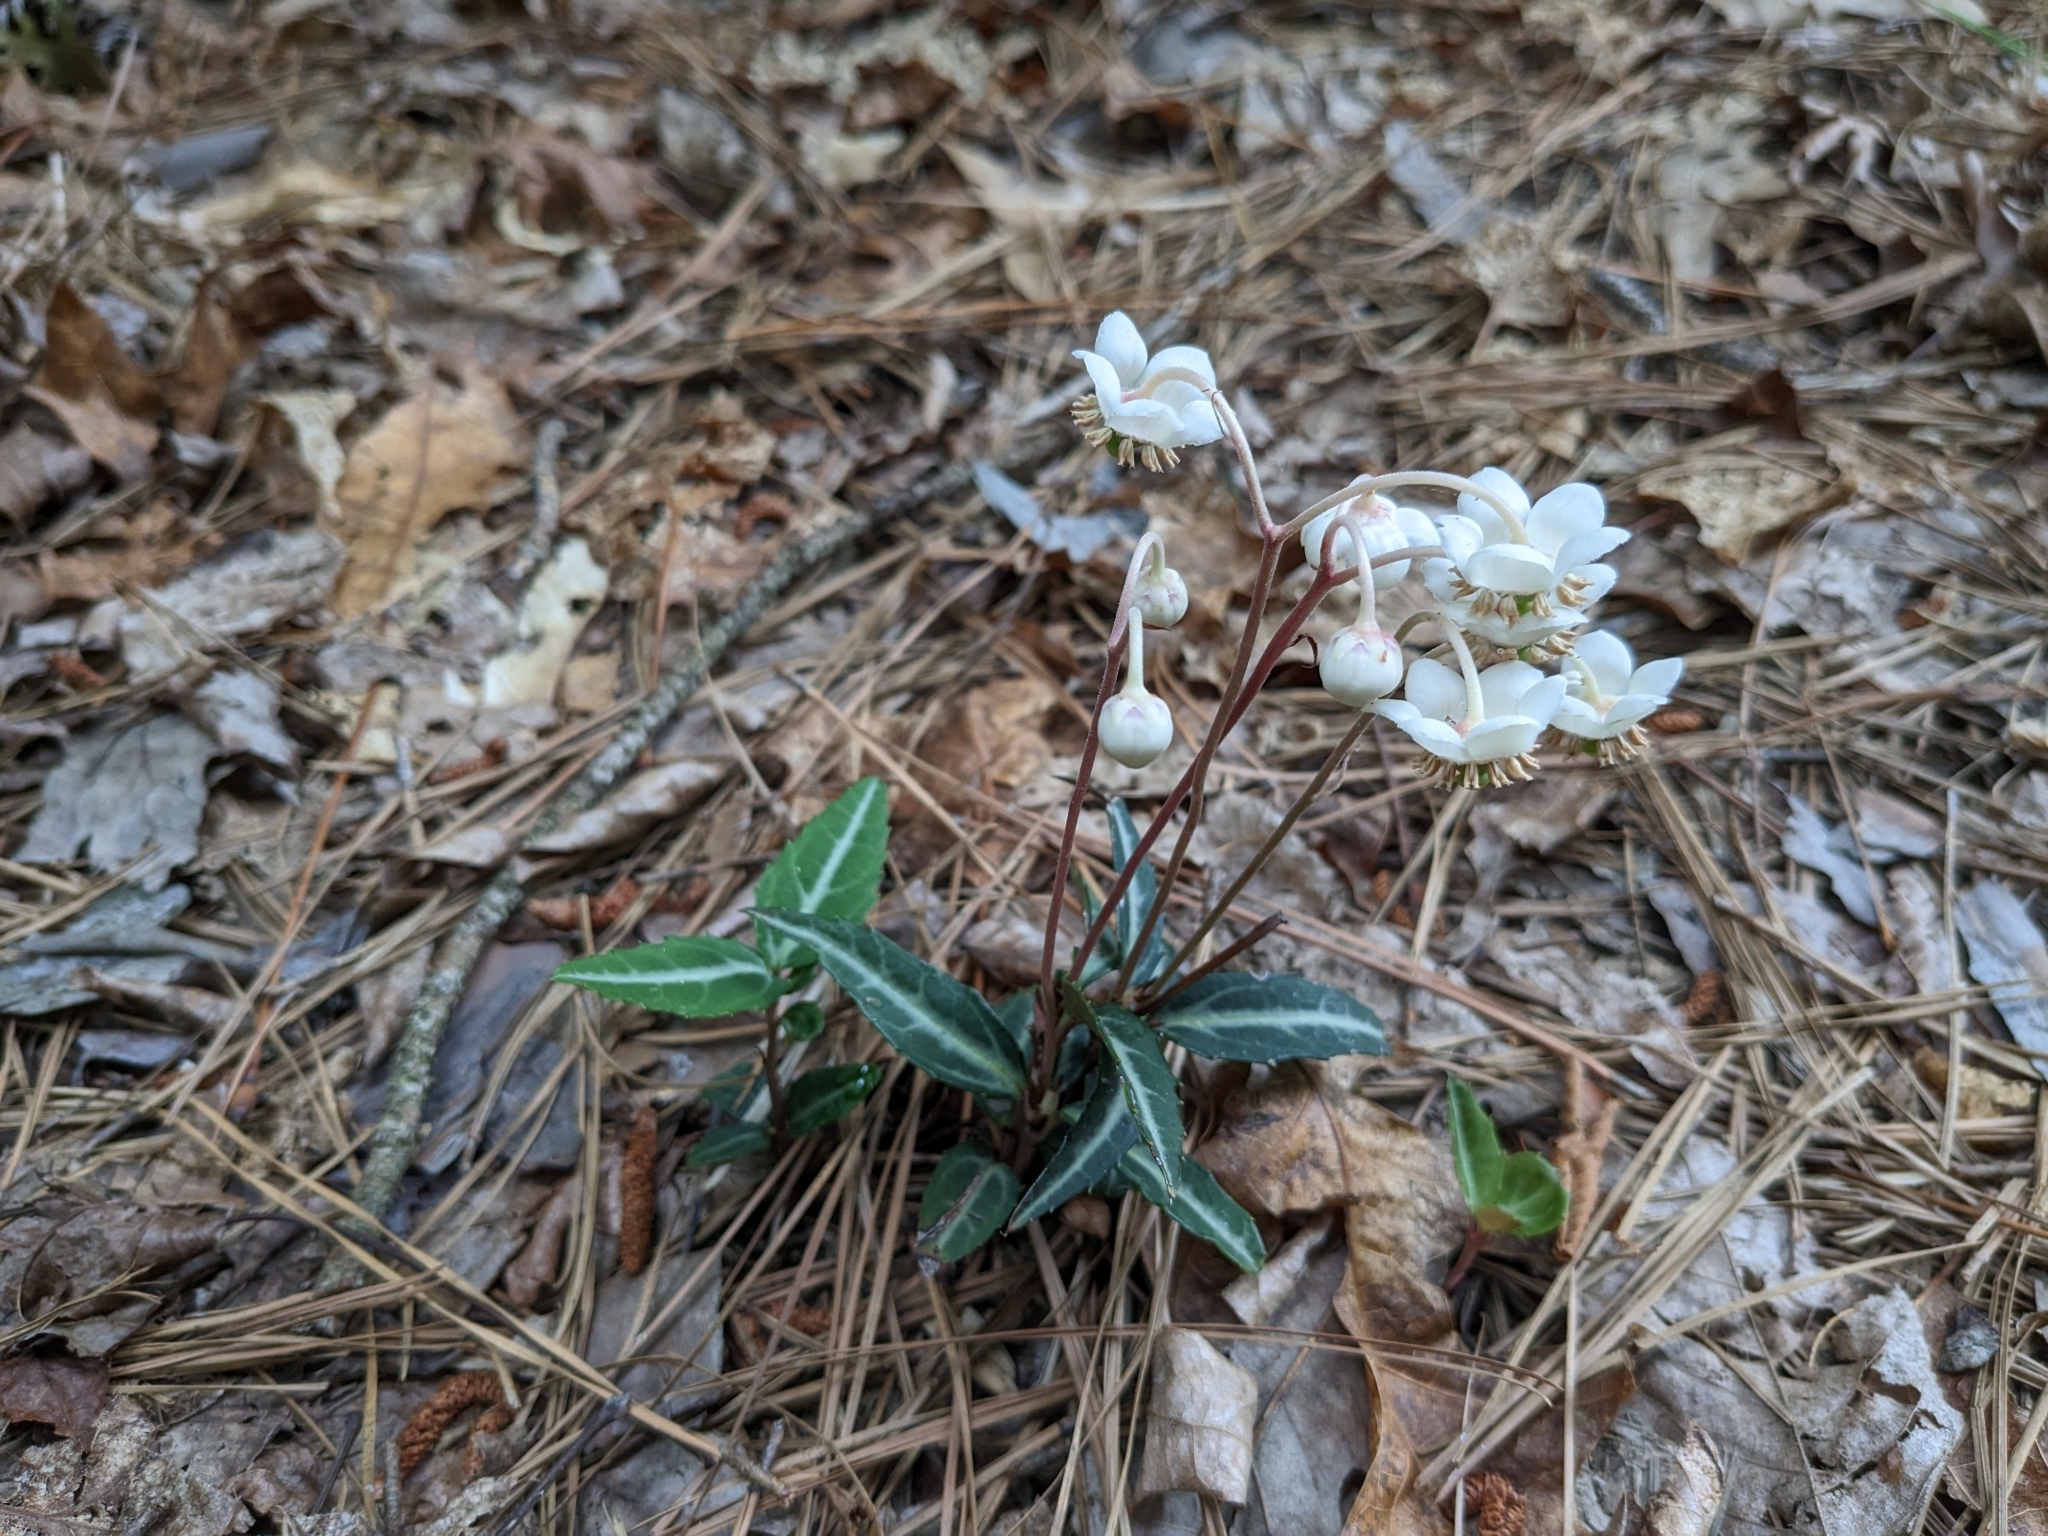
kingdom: Plantae
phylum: Tracheophyta
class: Magnoliopsida
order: Ericales
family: Ericaceae
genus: Chimaphila
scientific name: Chimaphila maculata
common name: Spotted pipsissewa
